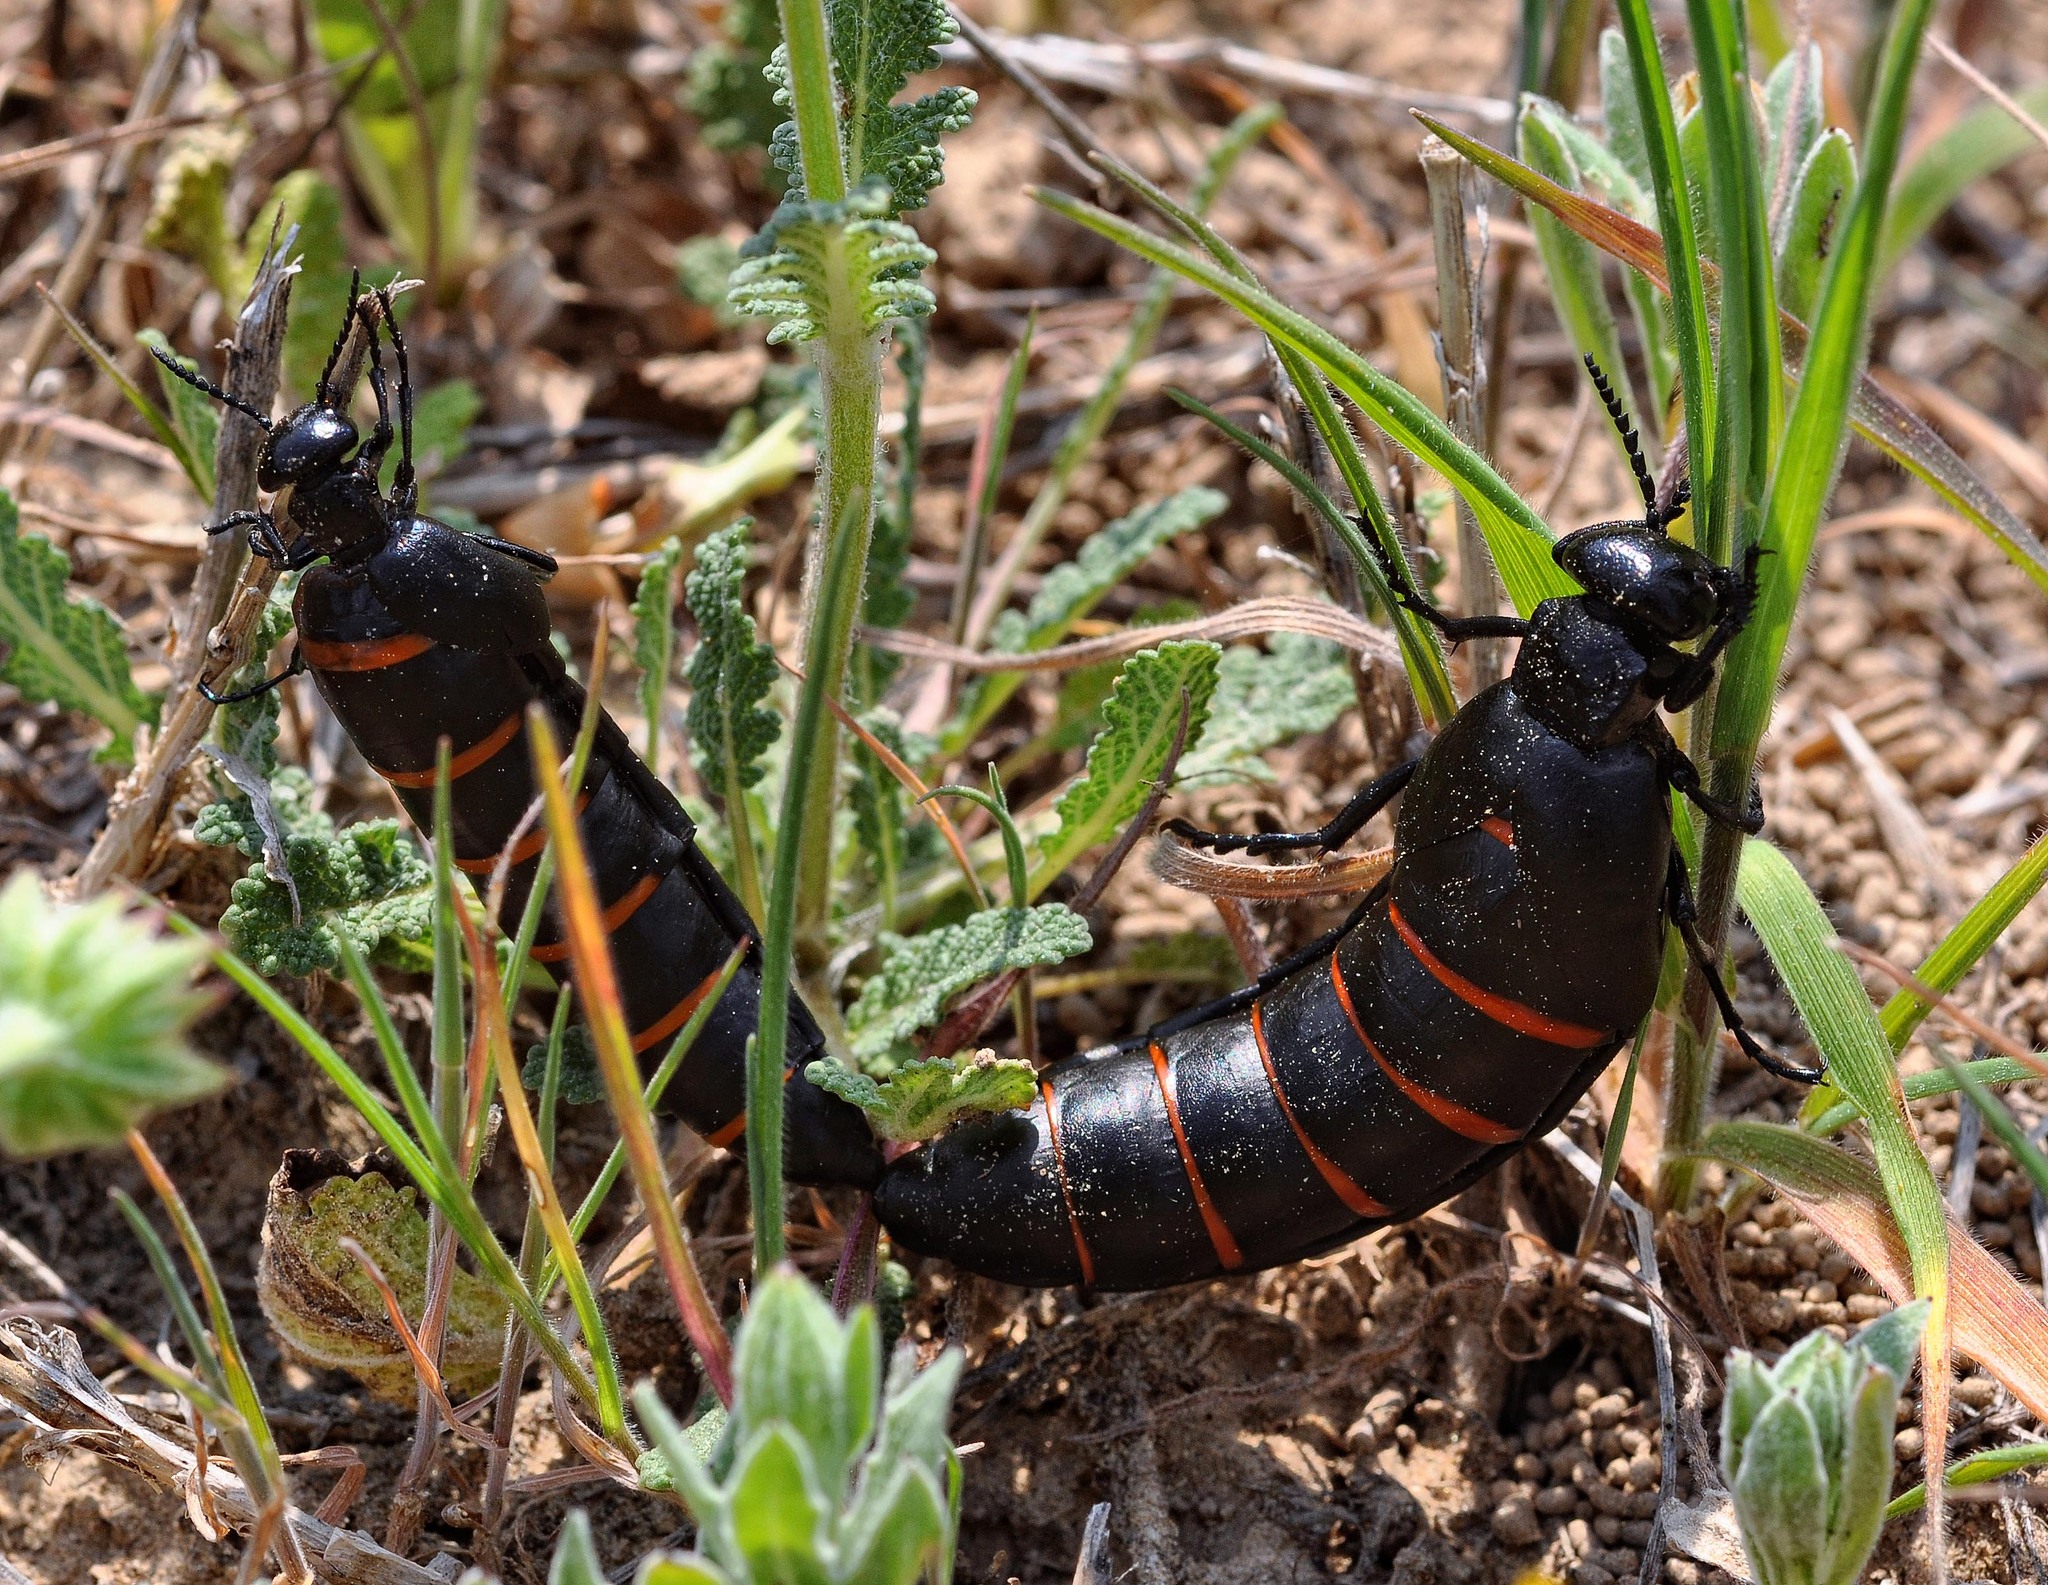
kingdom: Animalia
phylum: Arthropoda
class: Insecta
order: Coleoptera
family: Meloidae
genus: Berberomeloe
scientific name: Berberomeloe majalis
